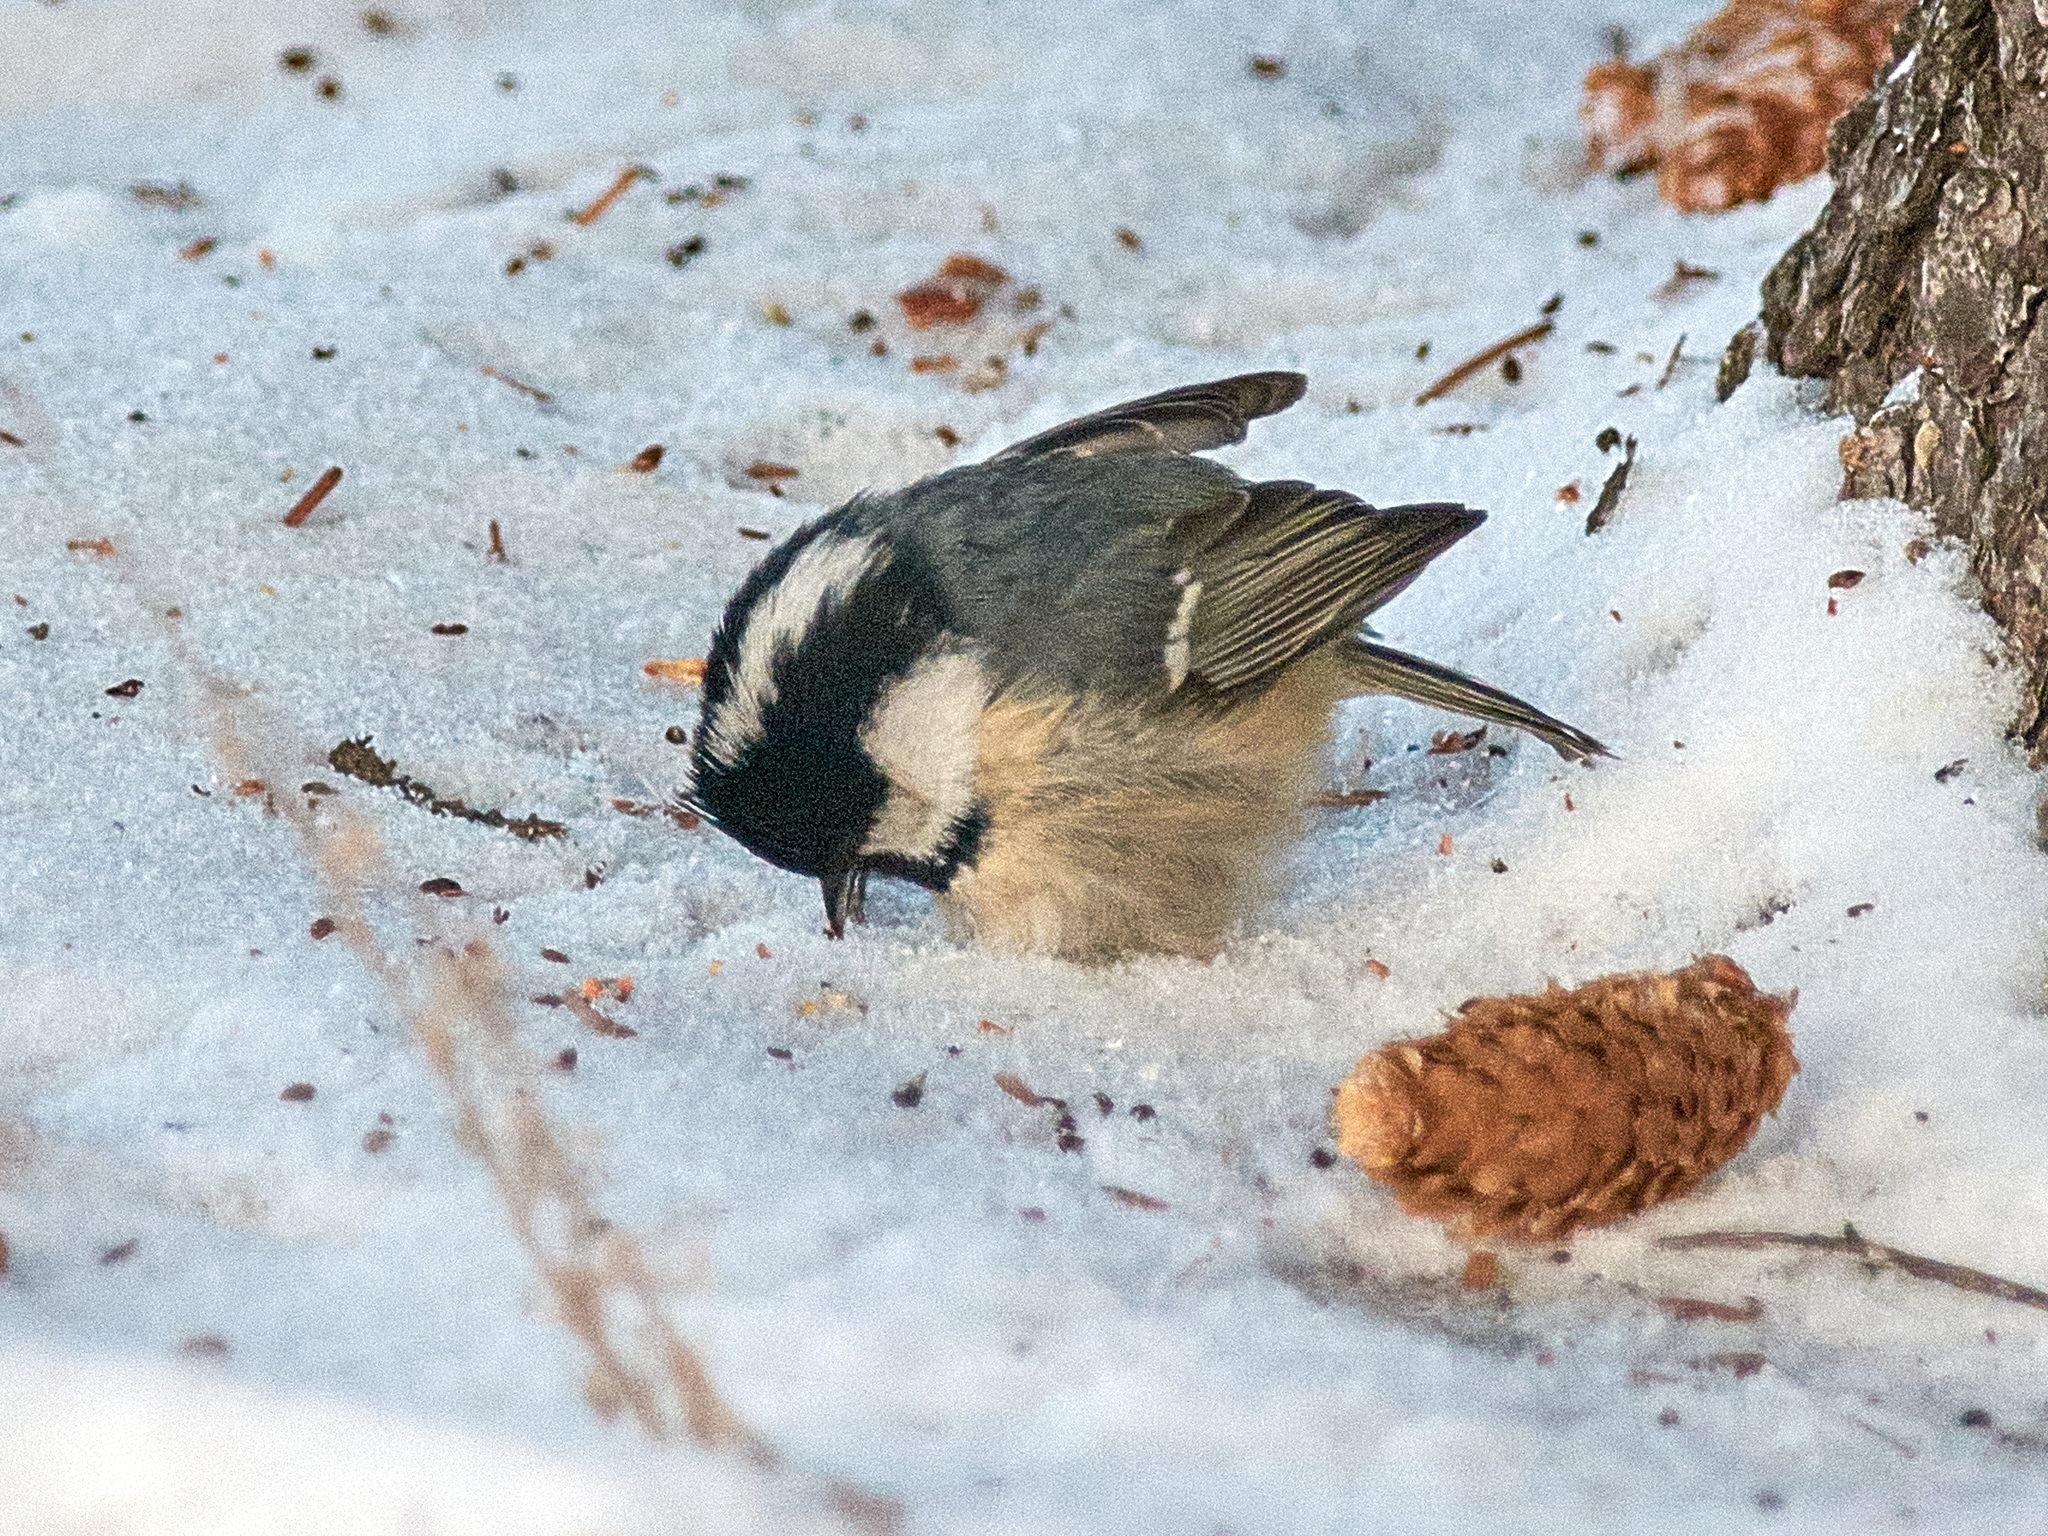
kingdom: Animalia
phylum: Chordata
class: Aves
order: Passeriformes
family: Paridae
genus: Periparus
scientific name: Periparus ater
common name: Coal tit
